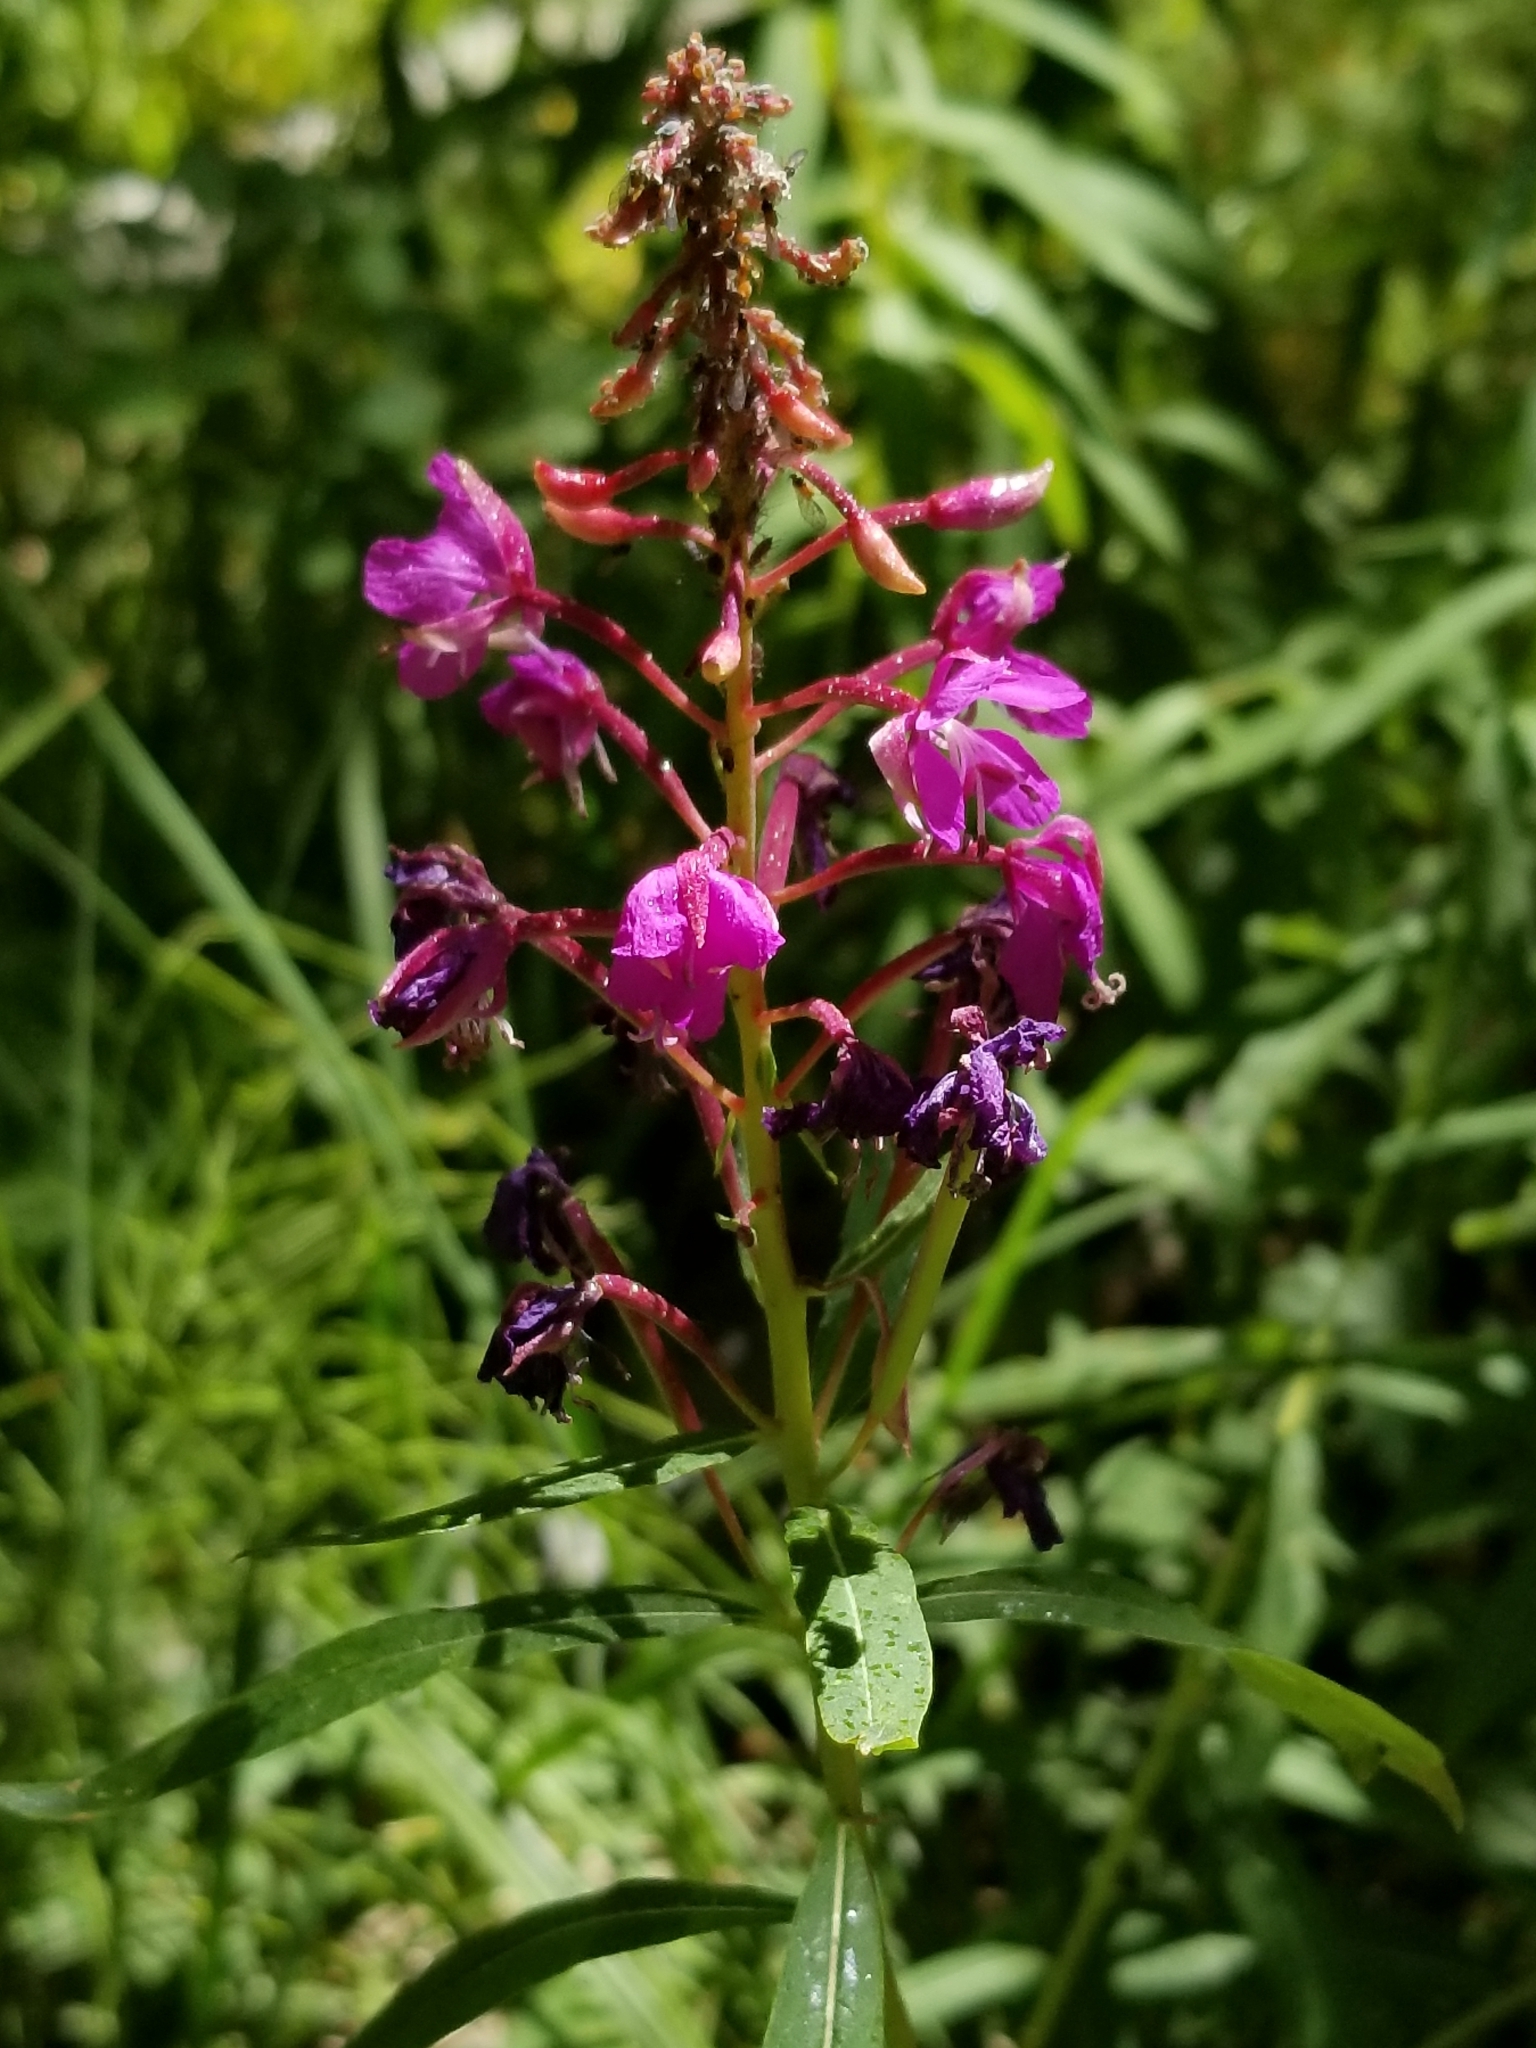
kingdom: Plantae
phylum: Tracheophyta
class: Magnoliopsida
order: Myrtales
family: Onagraceae
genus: Chamaenerion
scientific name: Chamaenerion angustifolium
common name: Fireweed
